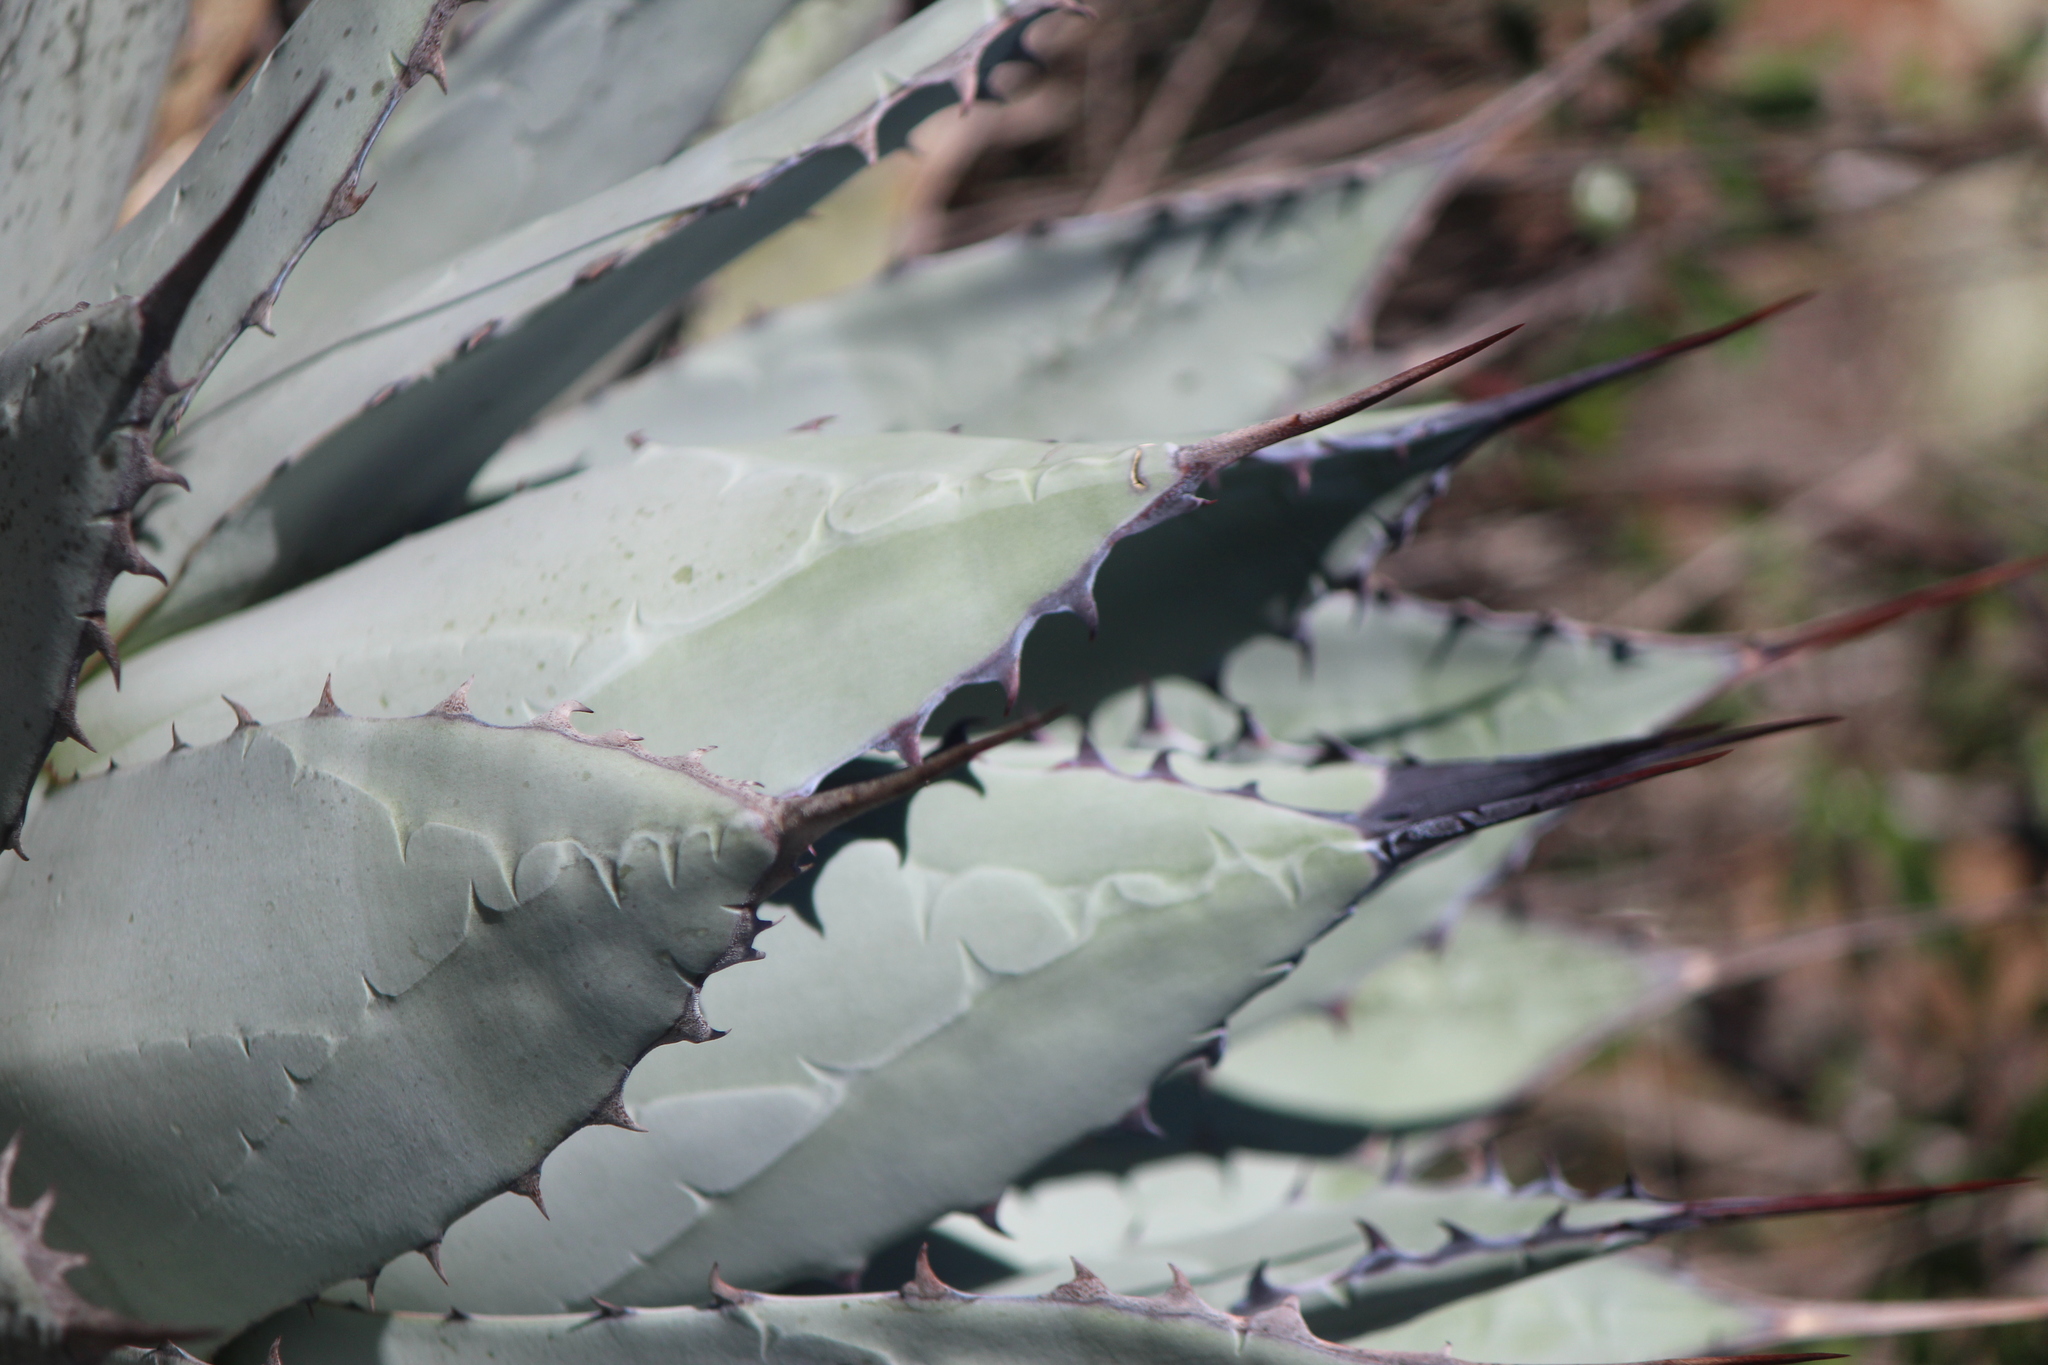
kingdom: Plantae
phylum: Tracheophyta
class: Liliopsida
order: Asparagales
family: Asparagaceae
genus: Agave
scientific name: Agave applanata
